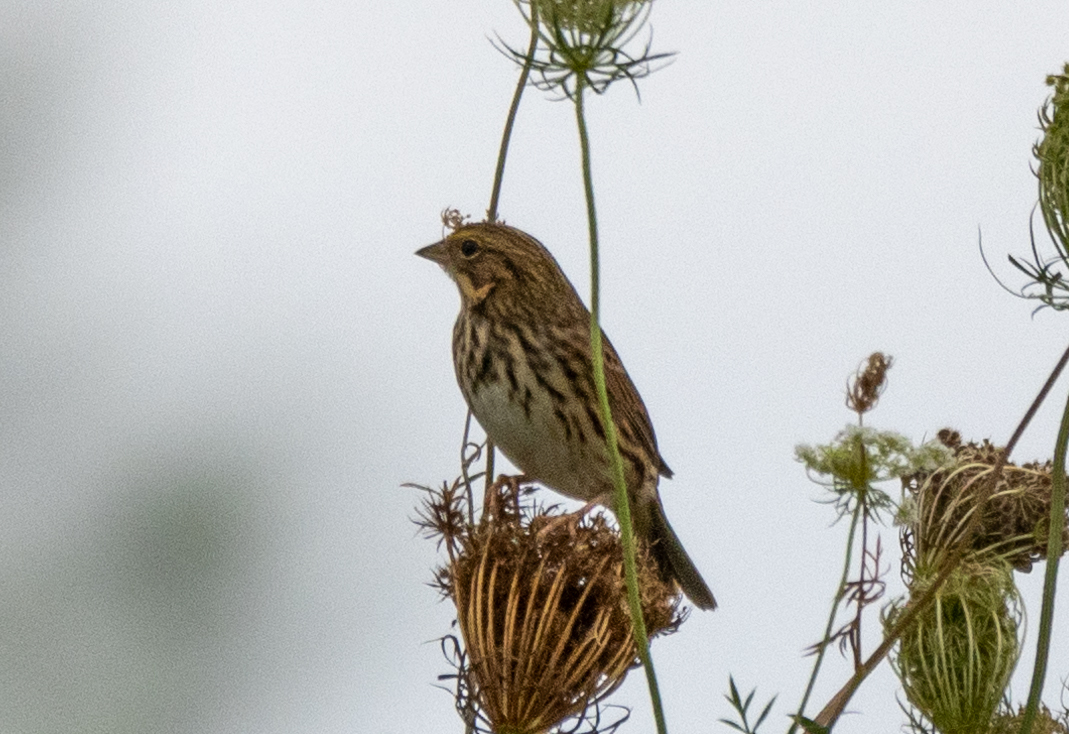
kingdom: Animalia
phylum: Chordata
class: Aves
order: Passeriformes
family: Passerellidae
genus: Passerculus
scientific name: Passerculus sandwichensis
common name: Savannah sparrow
